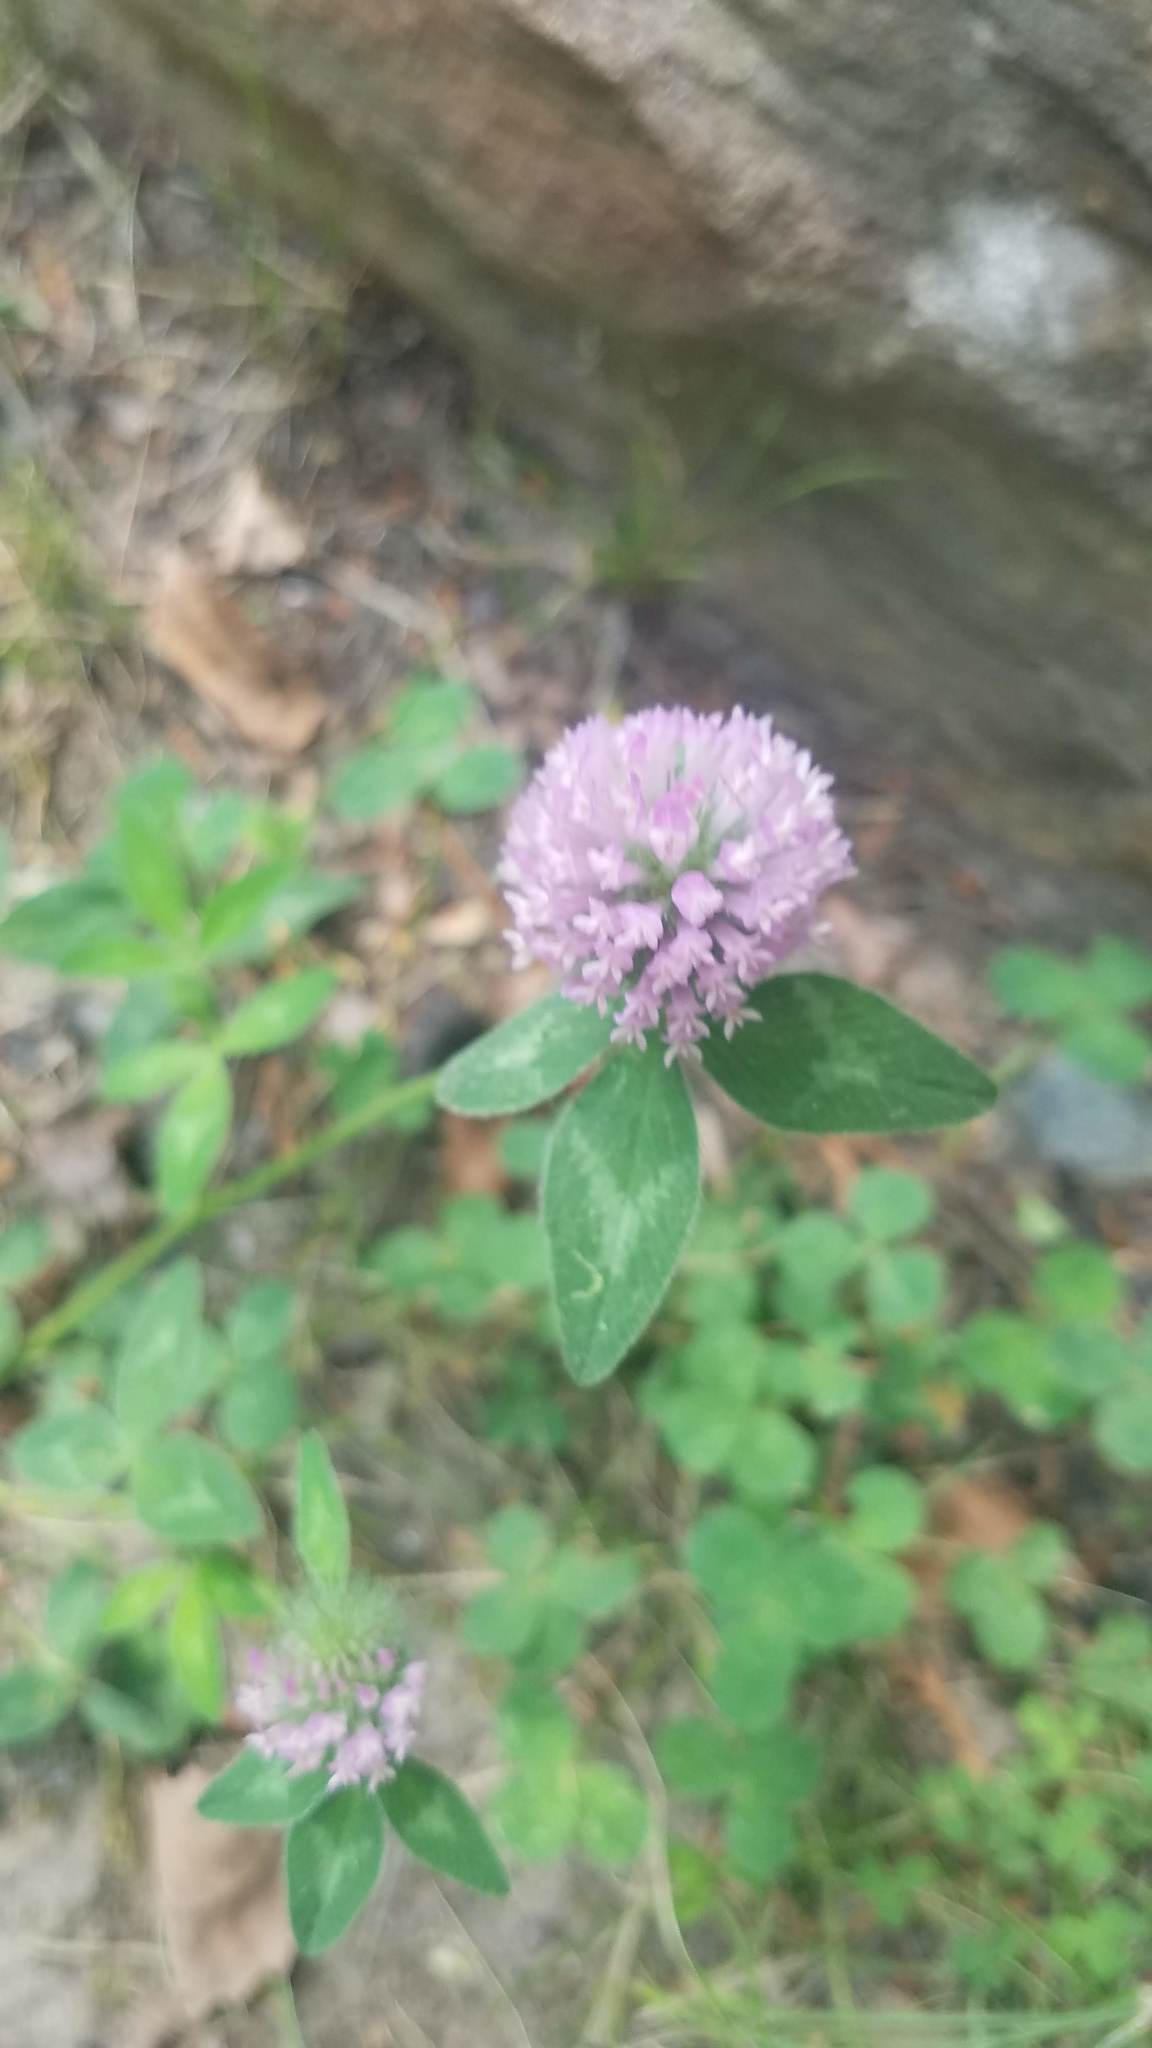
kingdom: Plantae
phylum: Tracheophyta
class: Magnoliopsida
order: Fabales
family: Fabaceae
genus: Trifolium
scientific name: Trifolium pratense
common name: Red clover
